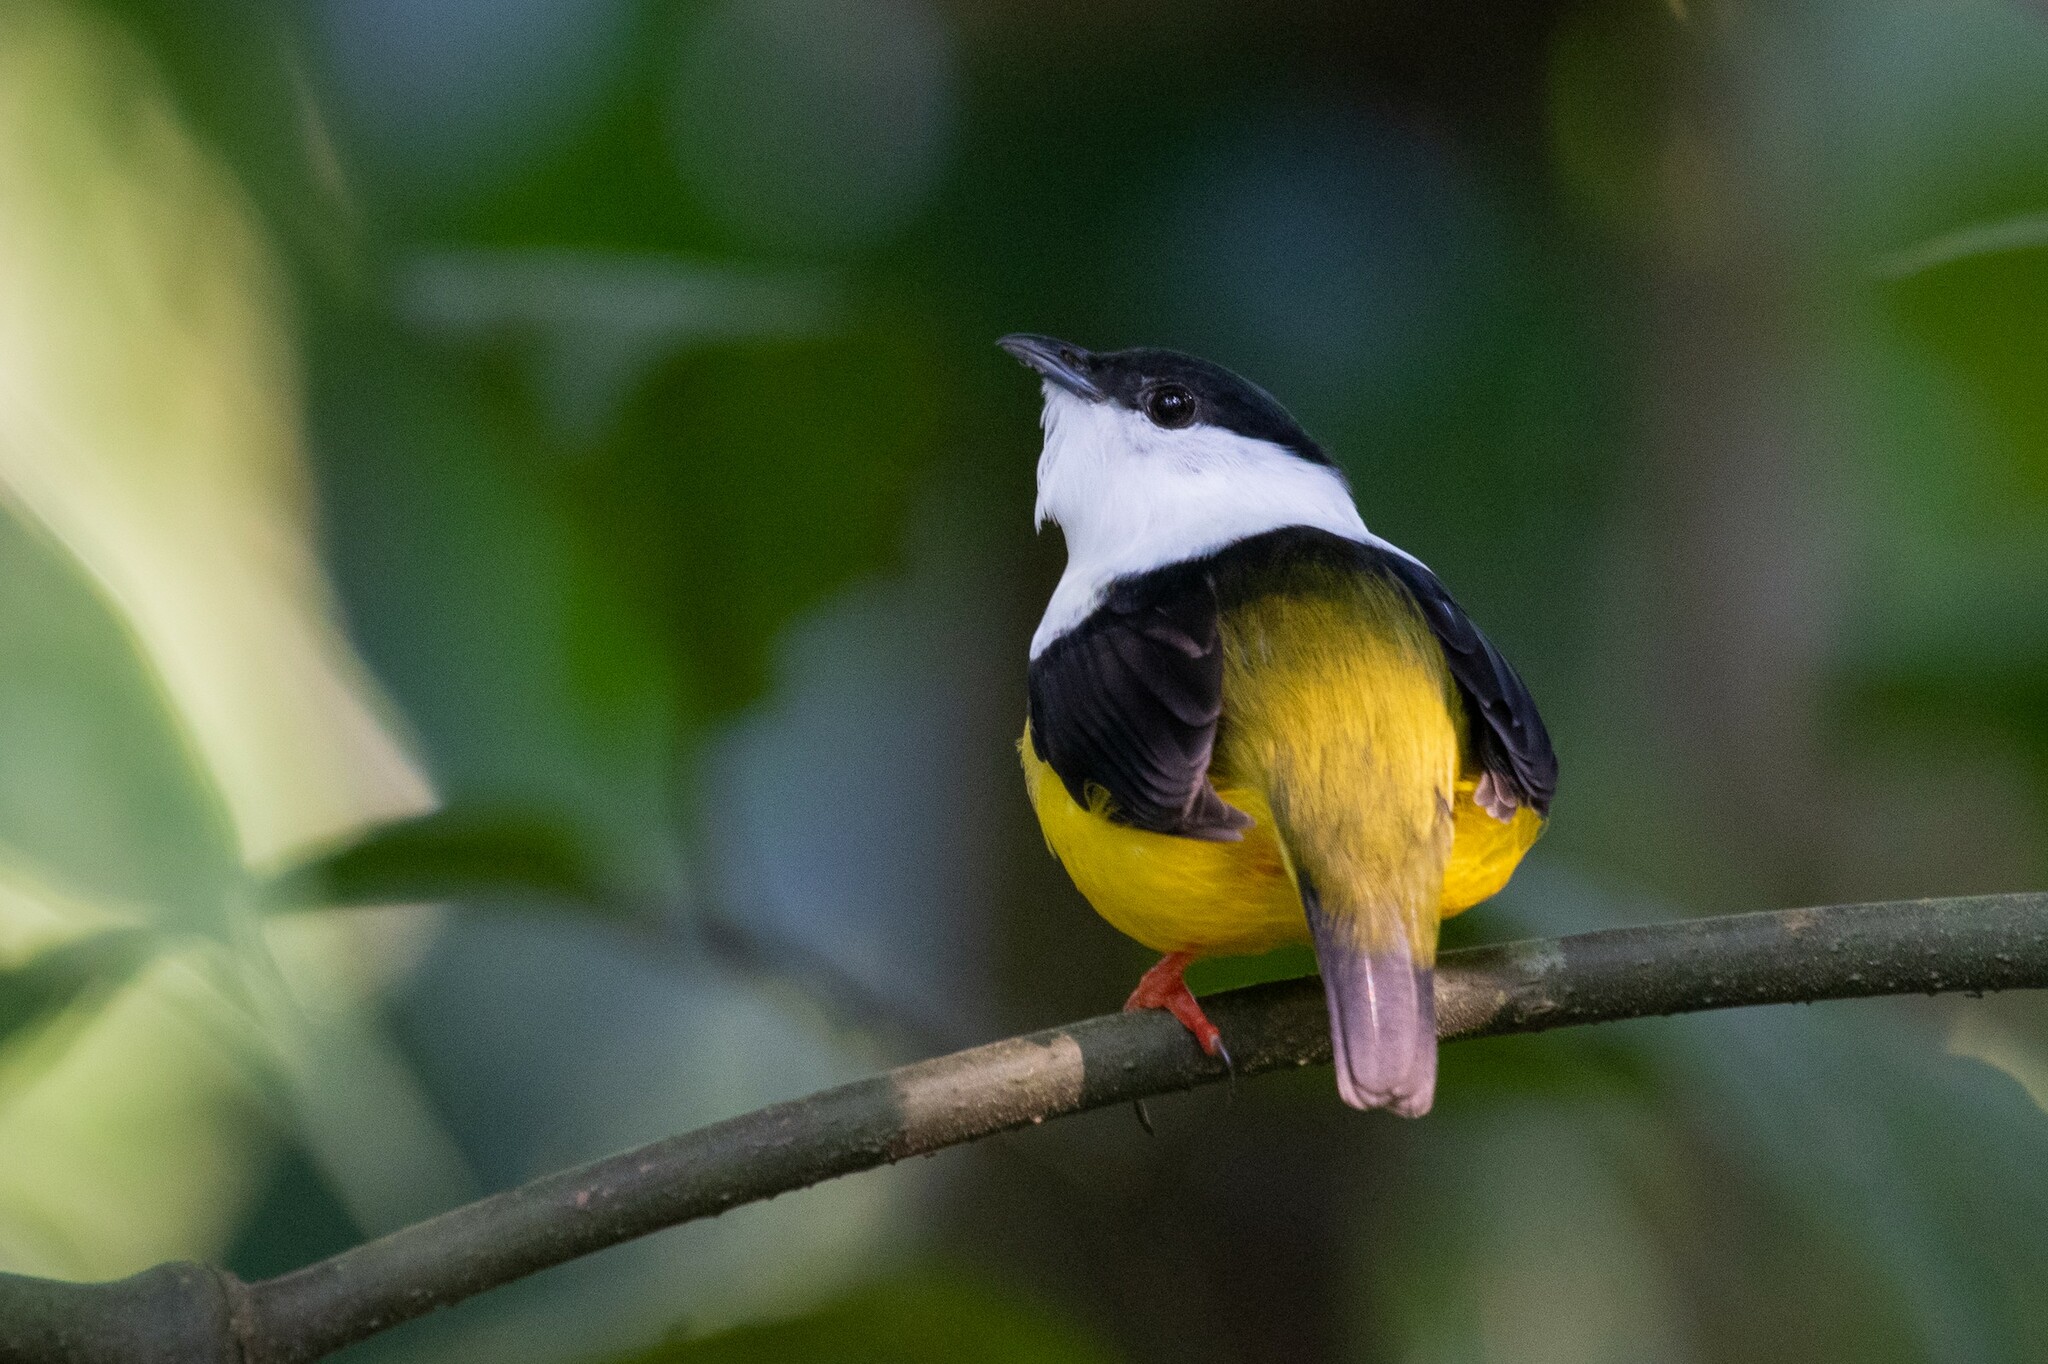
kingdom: Animalia
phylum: Chordata
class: Aves
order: Passeriformes
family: Pipridae
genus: Manacus
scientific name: Manacus candei
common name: White-collared manakin
